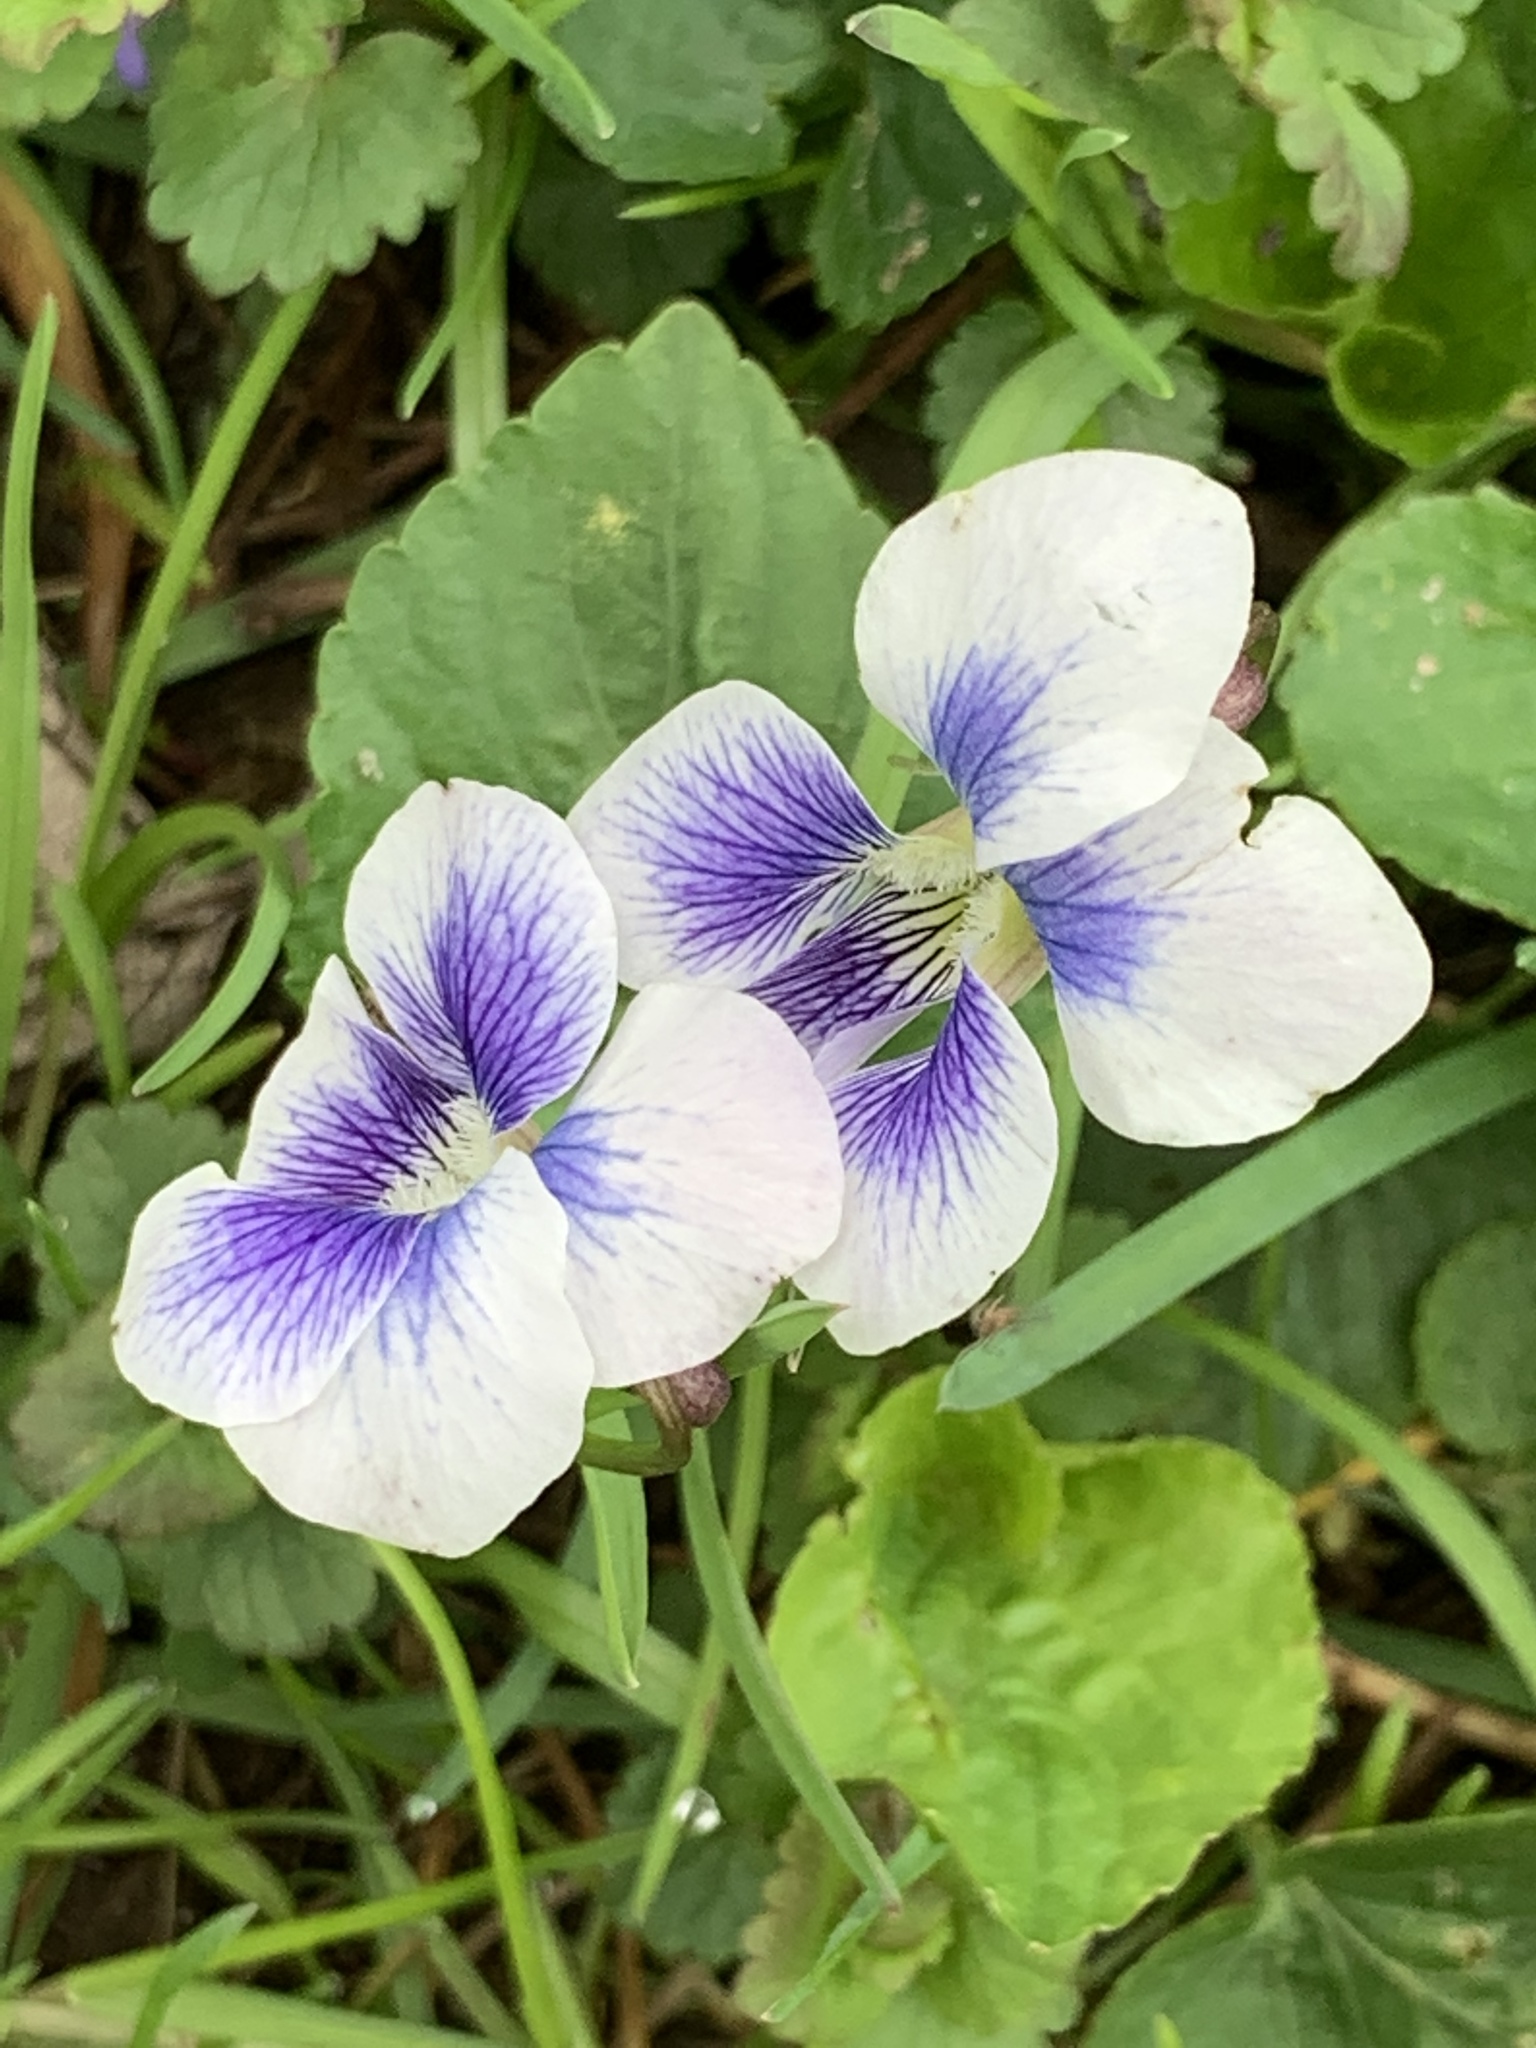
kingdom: Plantae
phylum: Tracheophyta
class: Magnoliopsida
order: Malpighiales
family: Violaceae
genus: Viola
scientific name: Viola sororia
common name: Dooryard violet
